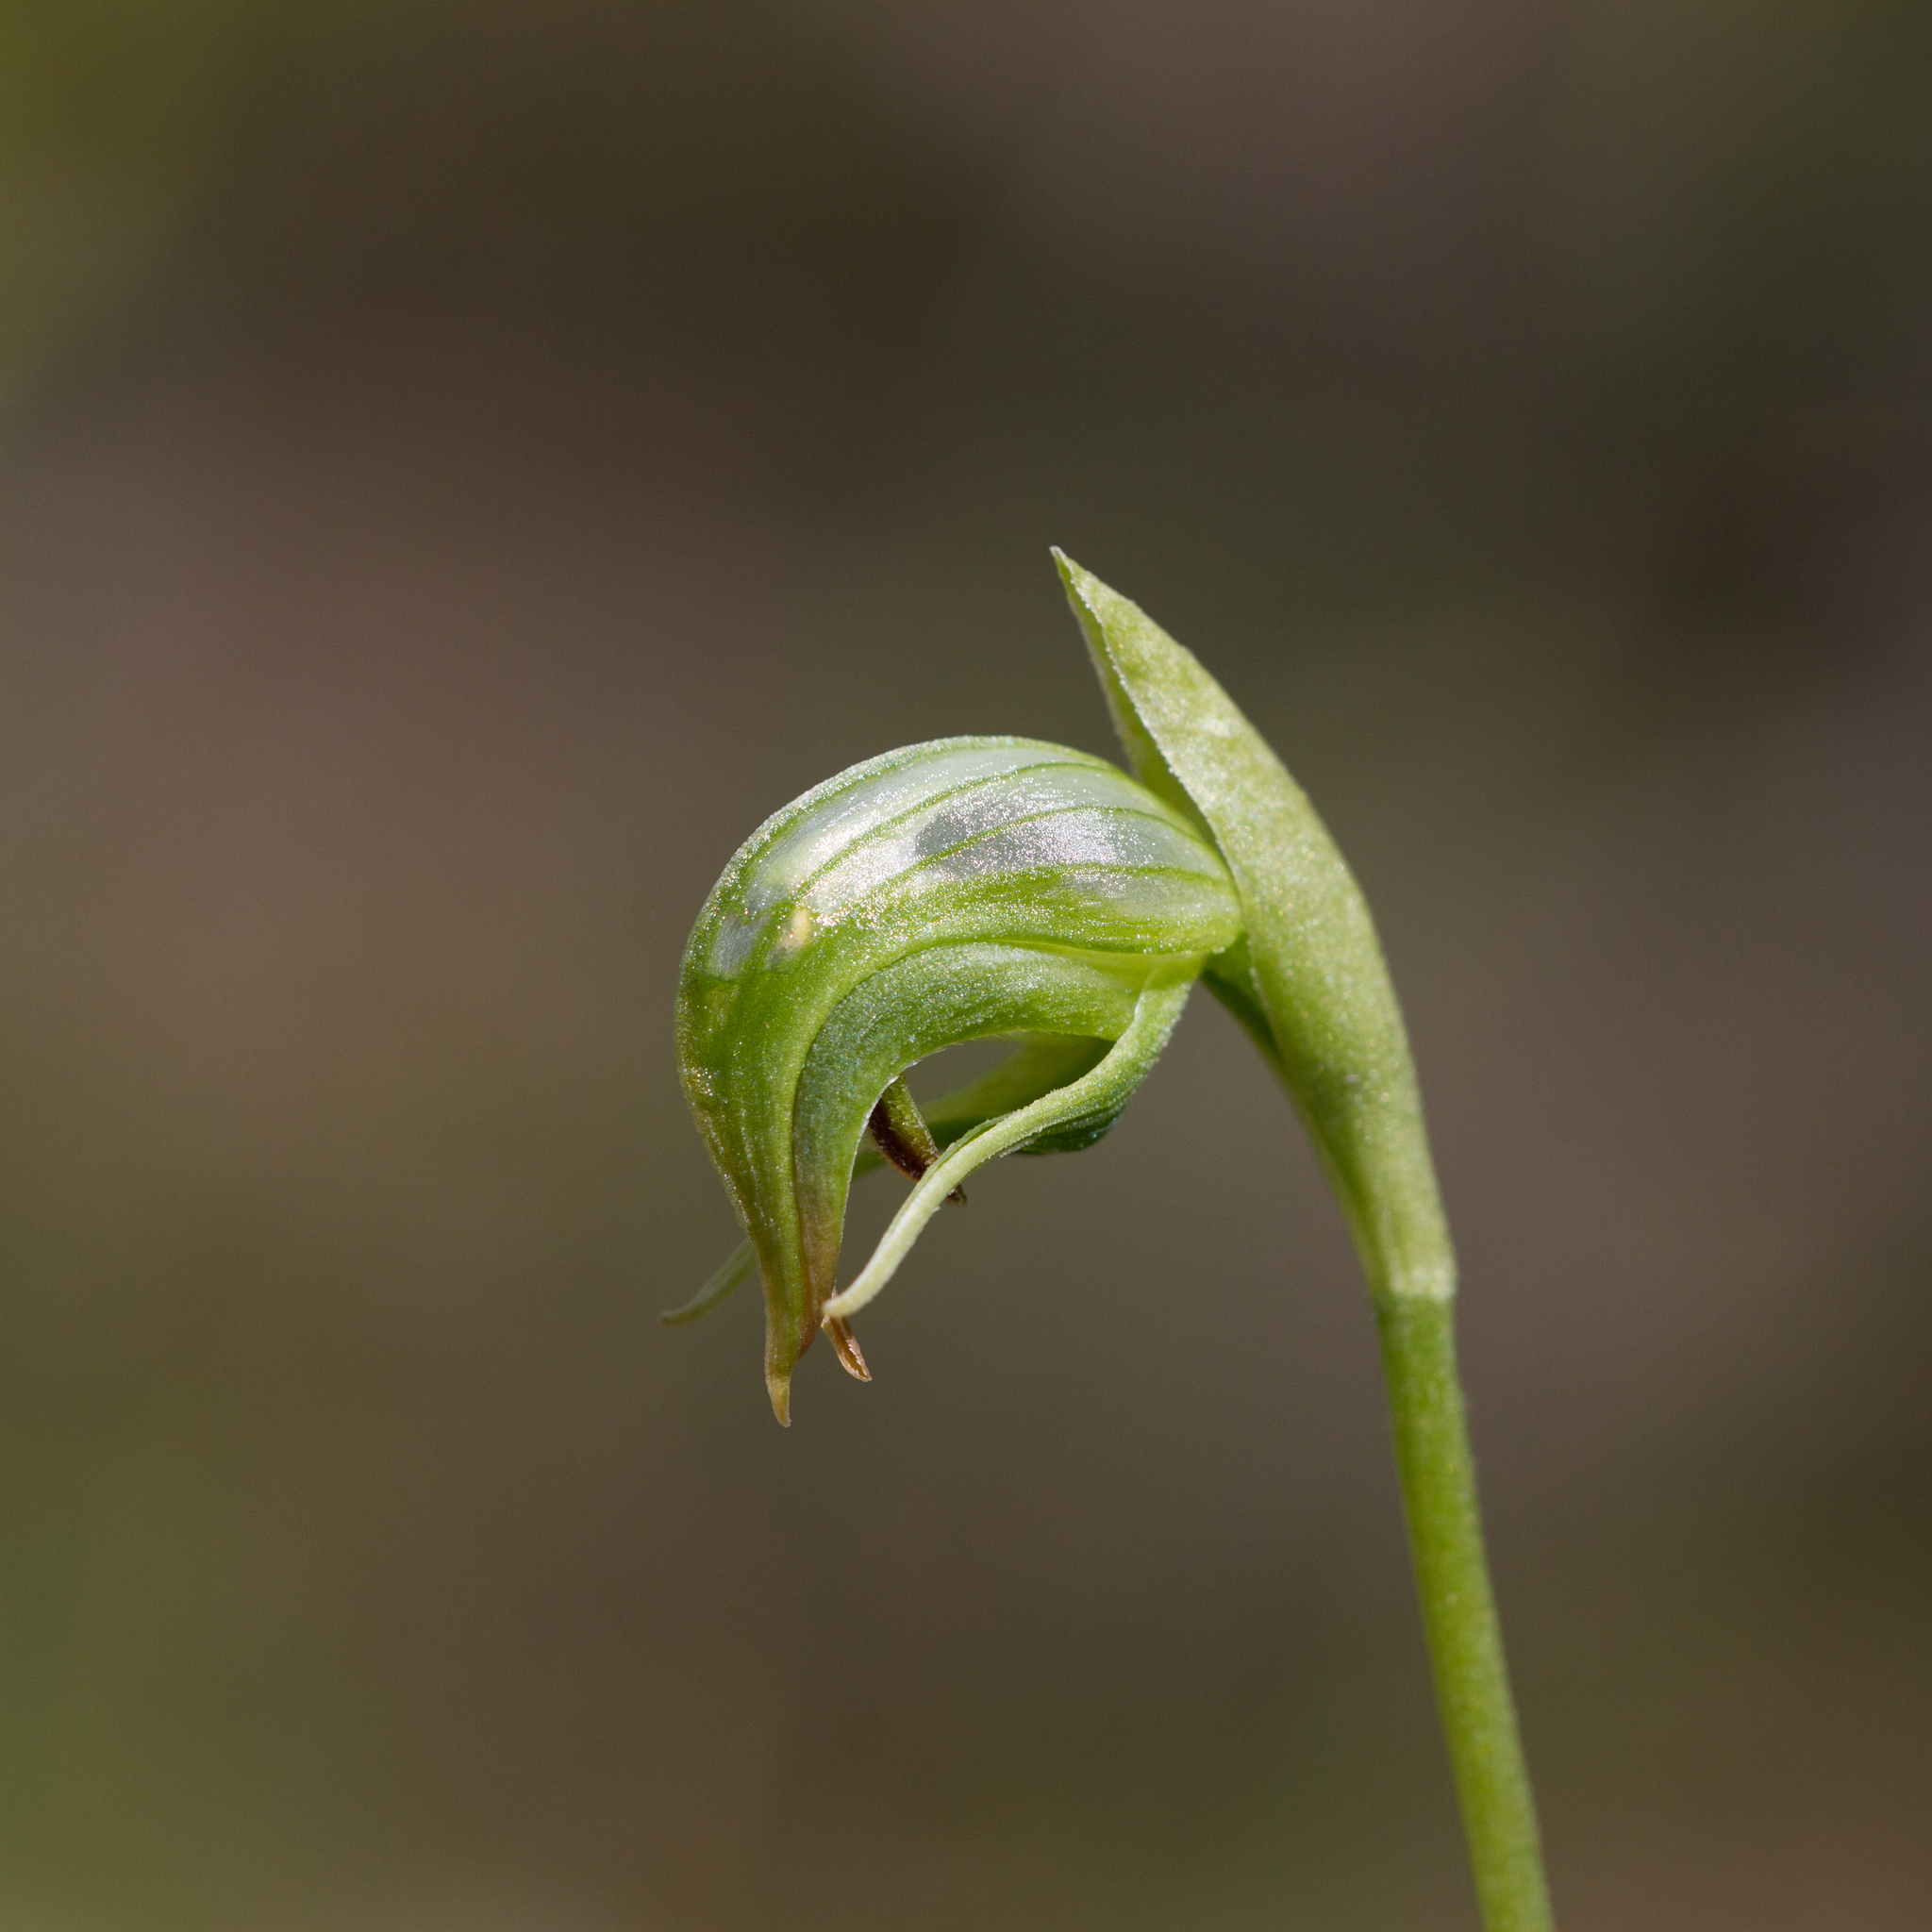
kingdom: Plantae
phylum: Tracheophyta
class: Liliopsida
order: Asparagales
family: Orchidaceae
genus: Pterostylis
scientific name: Pterostylis nutans
